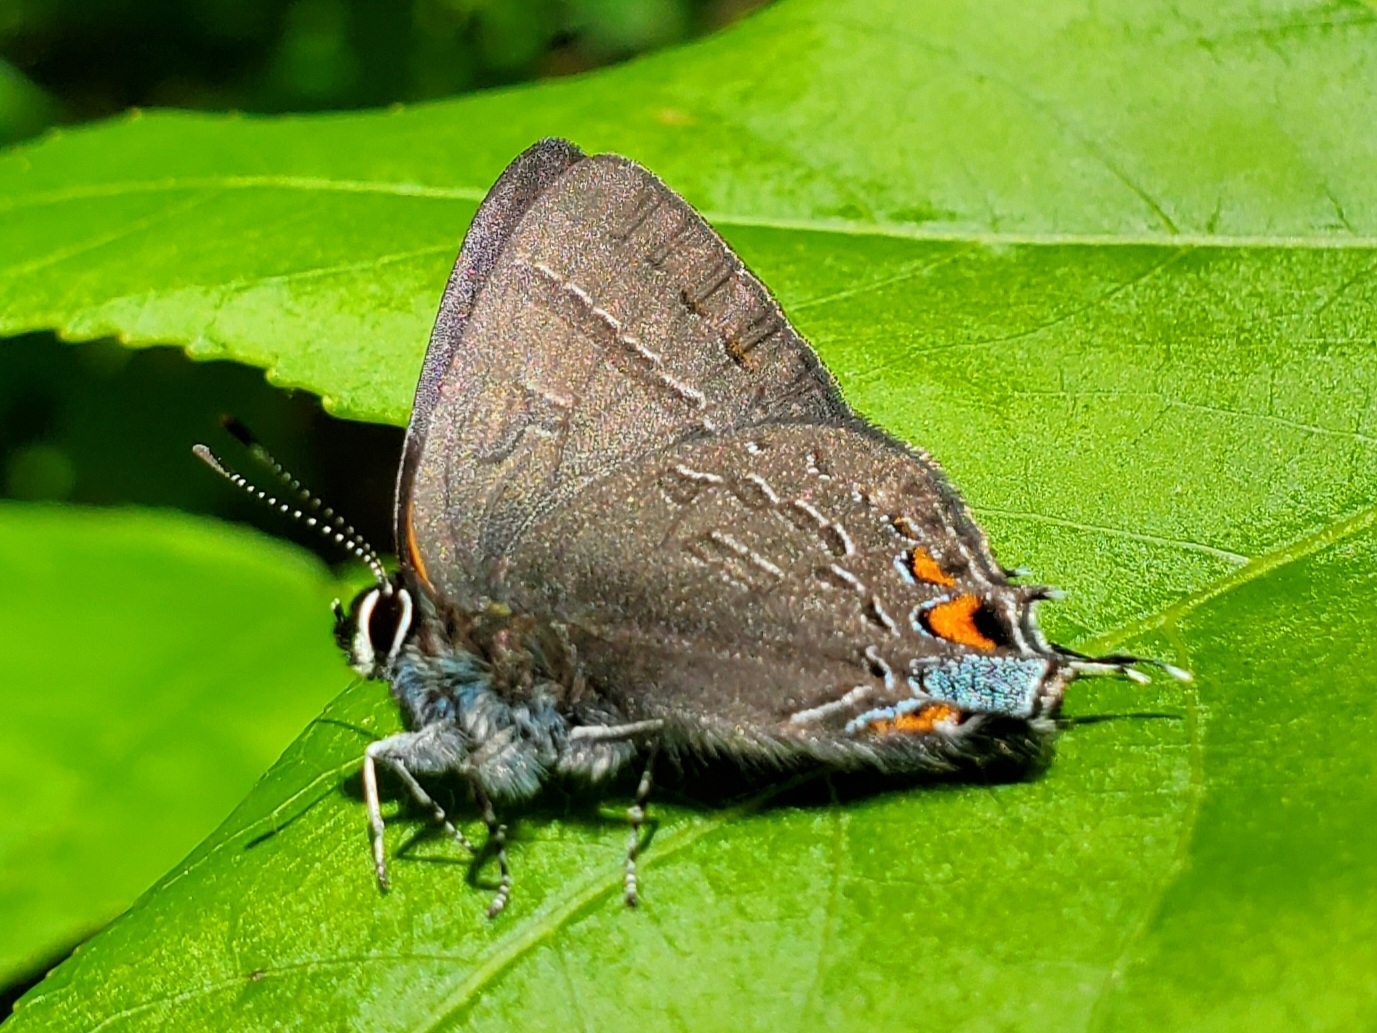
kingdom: Animalia
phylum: Arthropoda
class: Insecta
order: Lepidoptera
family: Lycaenidae
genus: Satyrium
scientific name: Satyrium calanus
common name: Banded hairstreak
